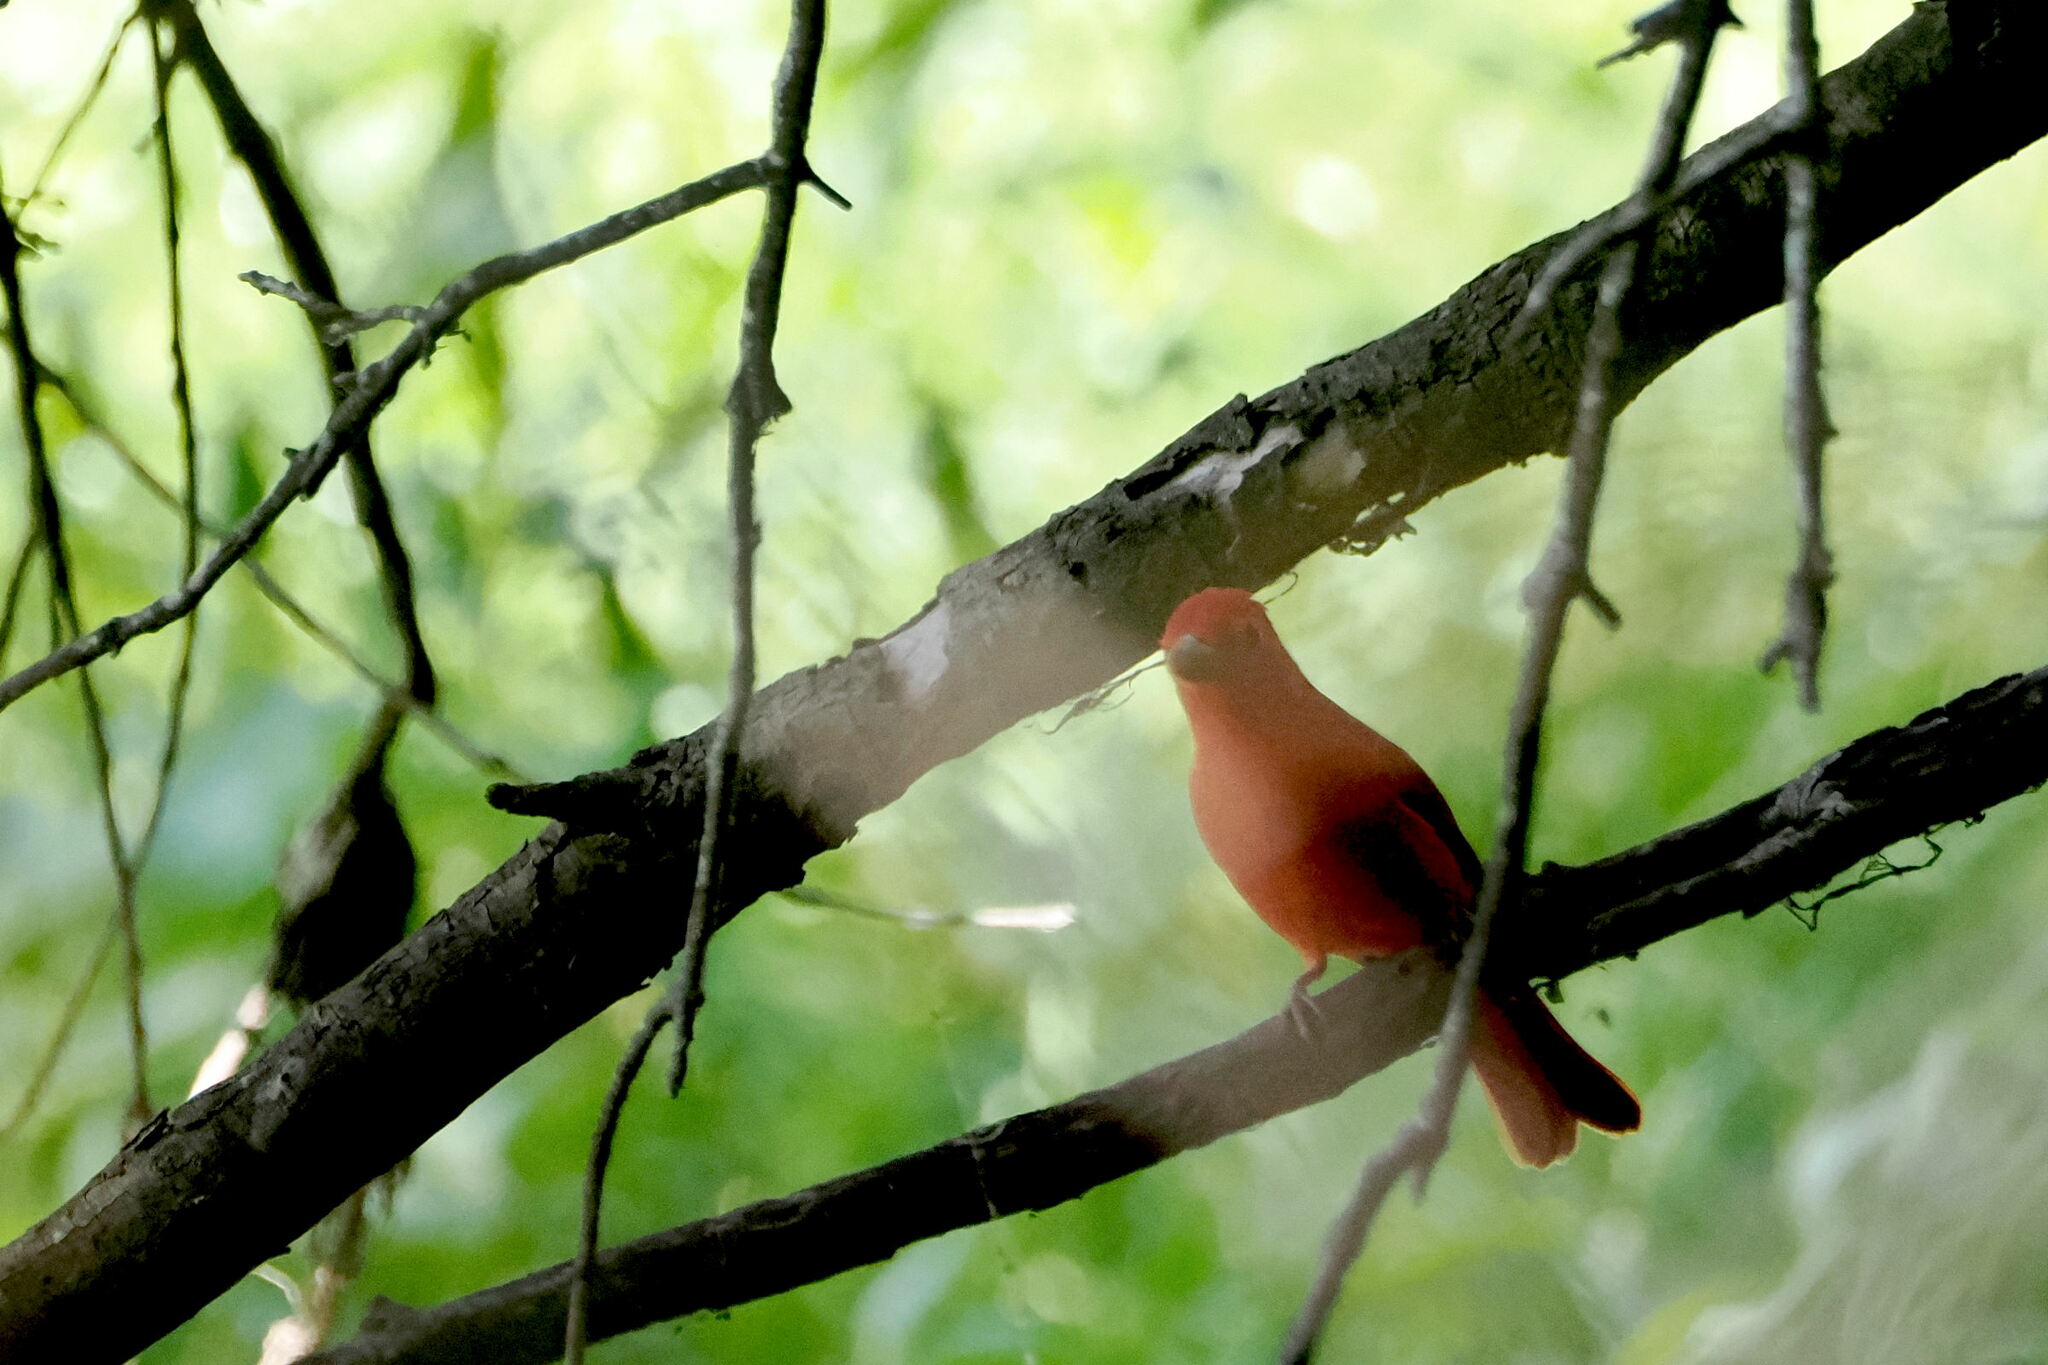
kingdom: Animalia
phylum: Chordata
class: Aves
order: Passeriformes
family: Cardinalidae
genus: Piranga
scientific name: Piranga rubra
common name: Summer tanager
